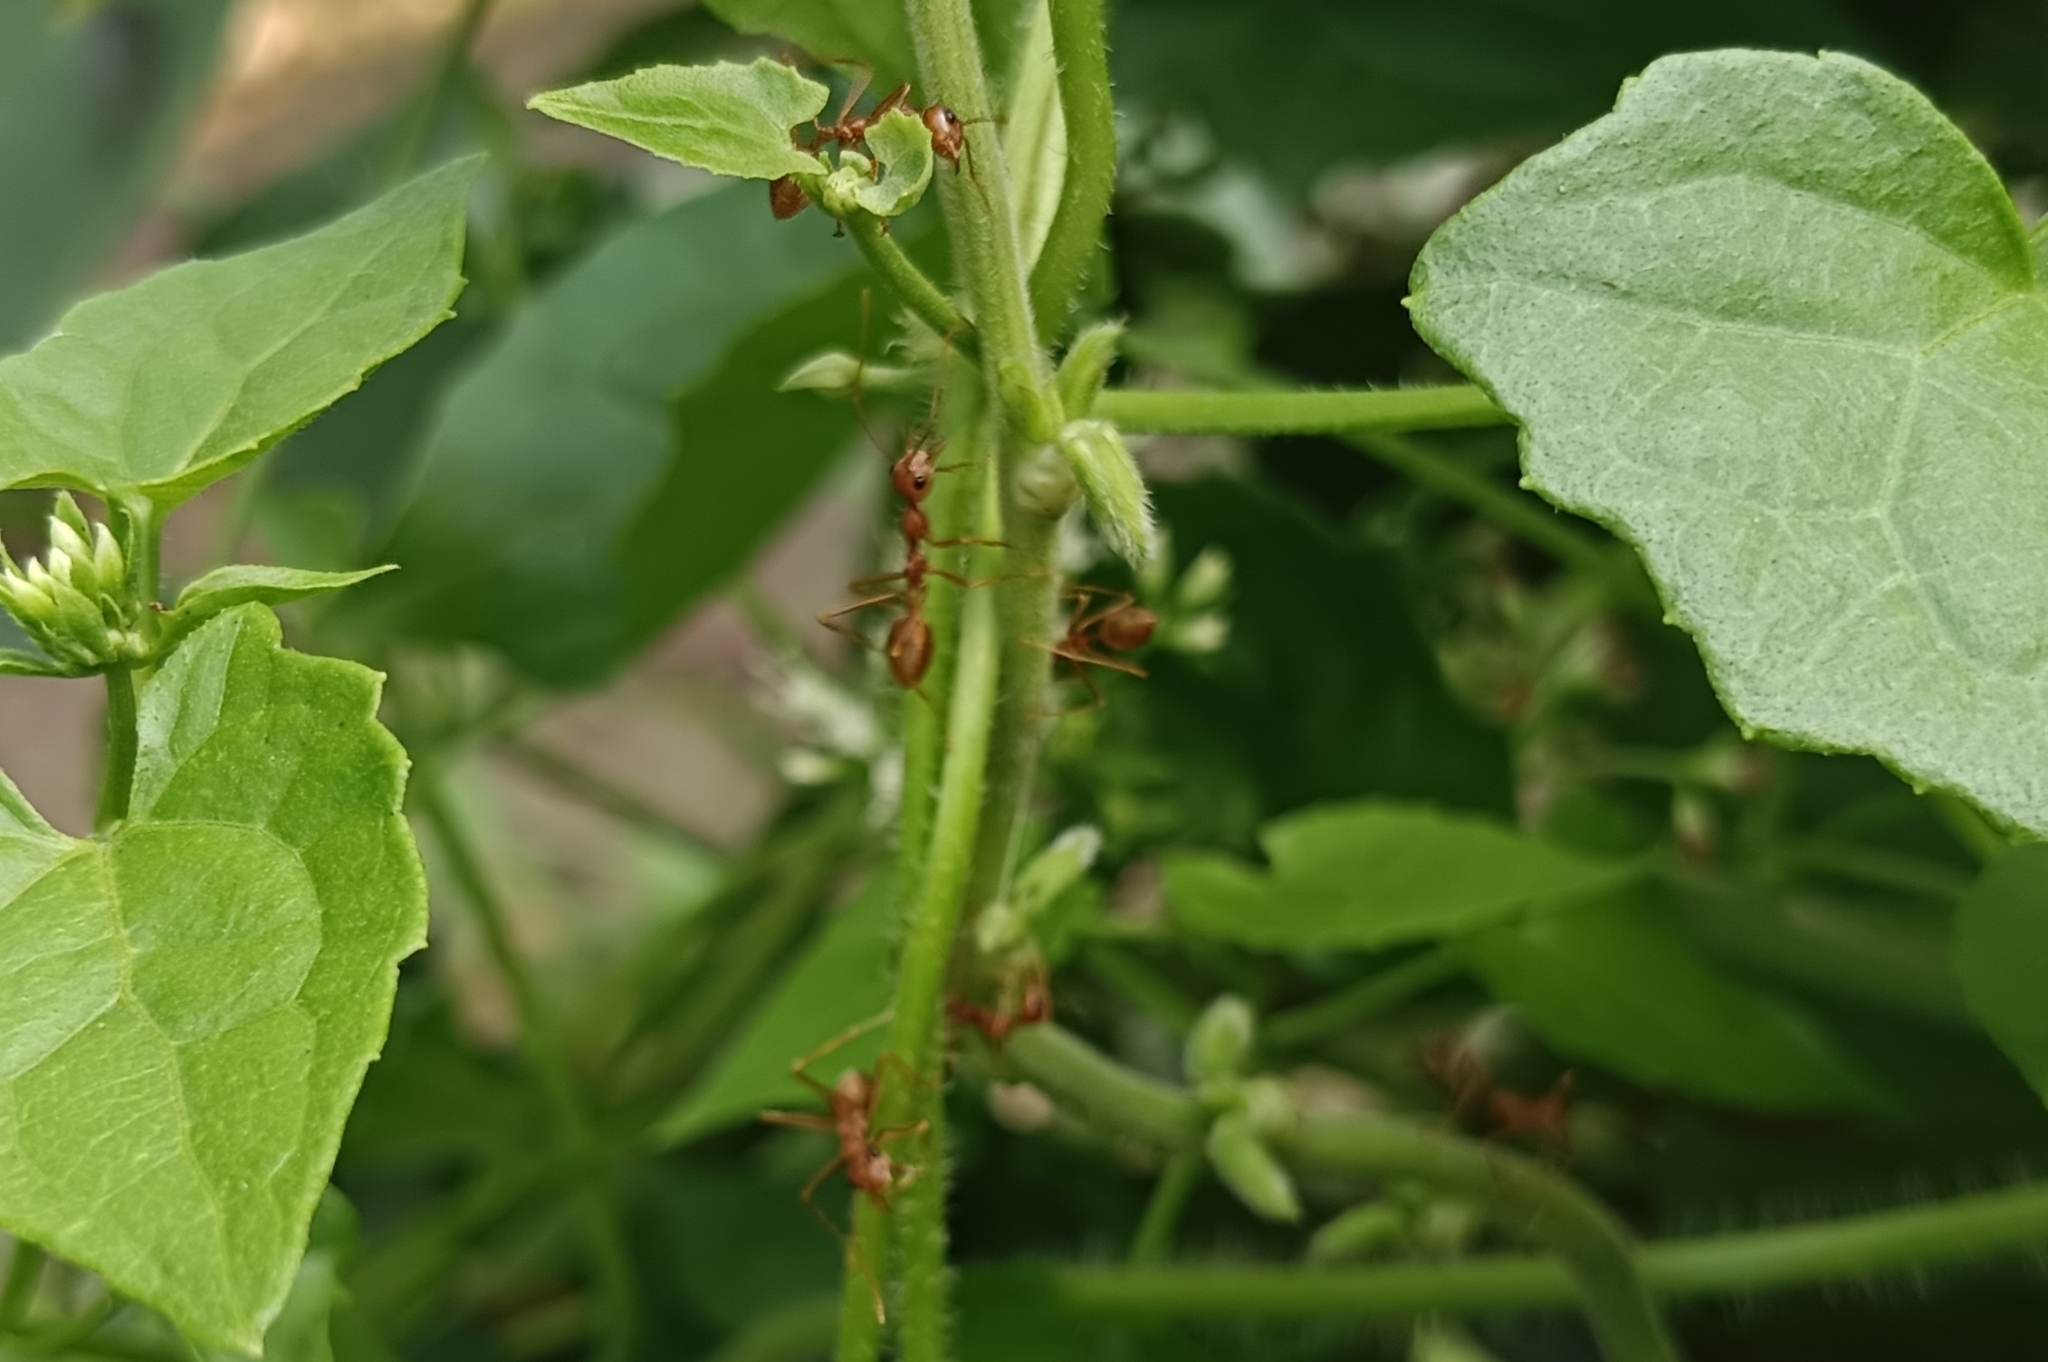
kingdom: Animalia
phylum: Arthropoda
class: Insecta
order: Hymenoptera
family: Formicidae
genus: Oecophylla
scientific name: Oecophylla smaragdina
